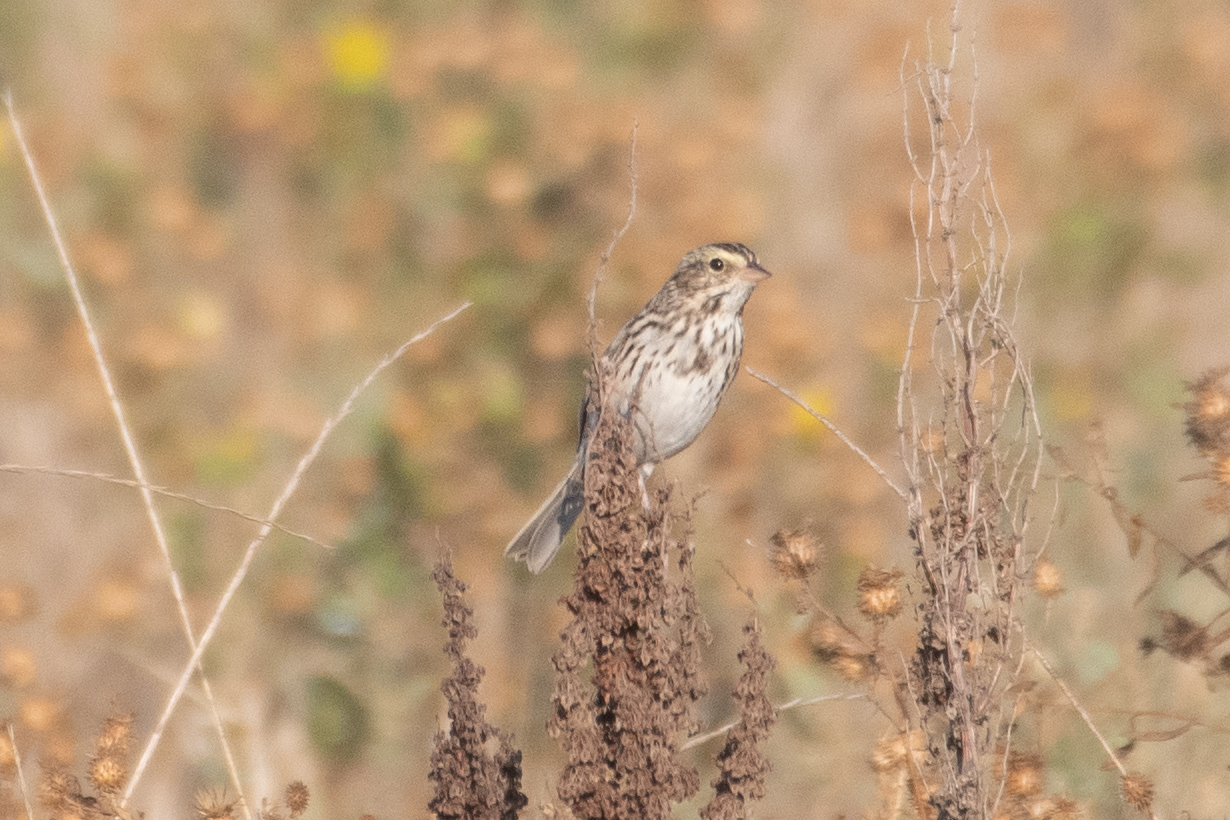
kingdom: Animalia
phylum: Chordata
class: Aves
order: Passeriformes
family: Passerellidae
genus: Passerculus
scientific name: Passerculus sandwichensis
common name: Savannah sparrow
